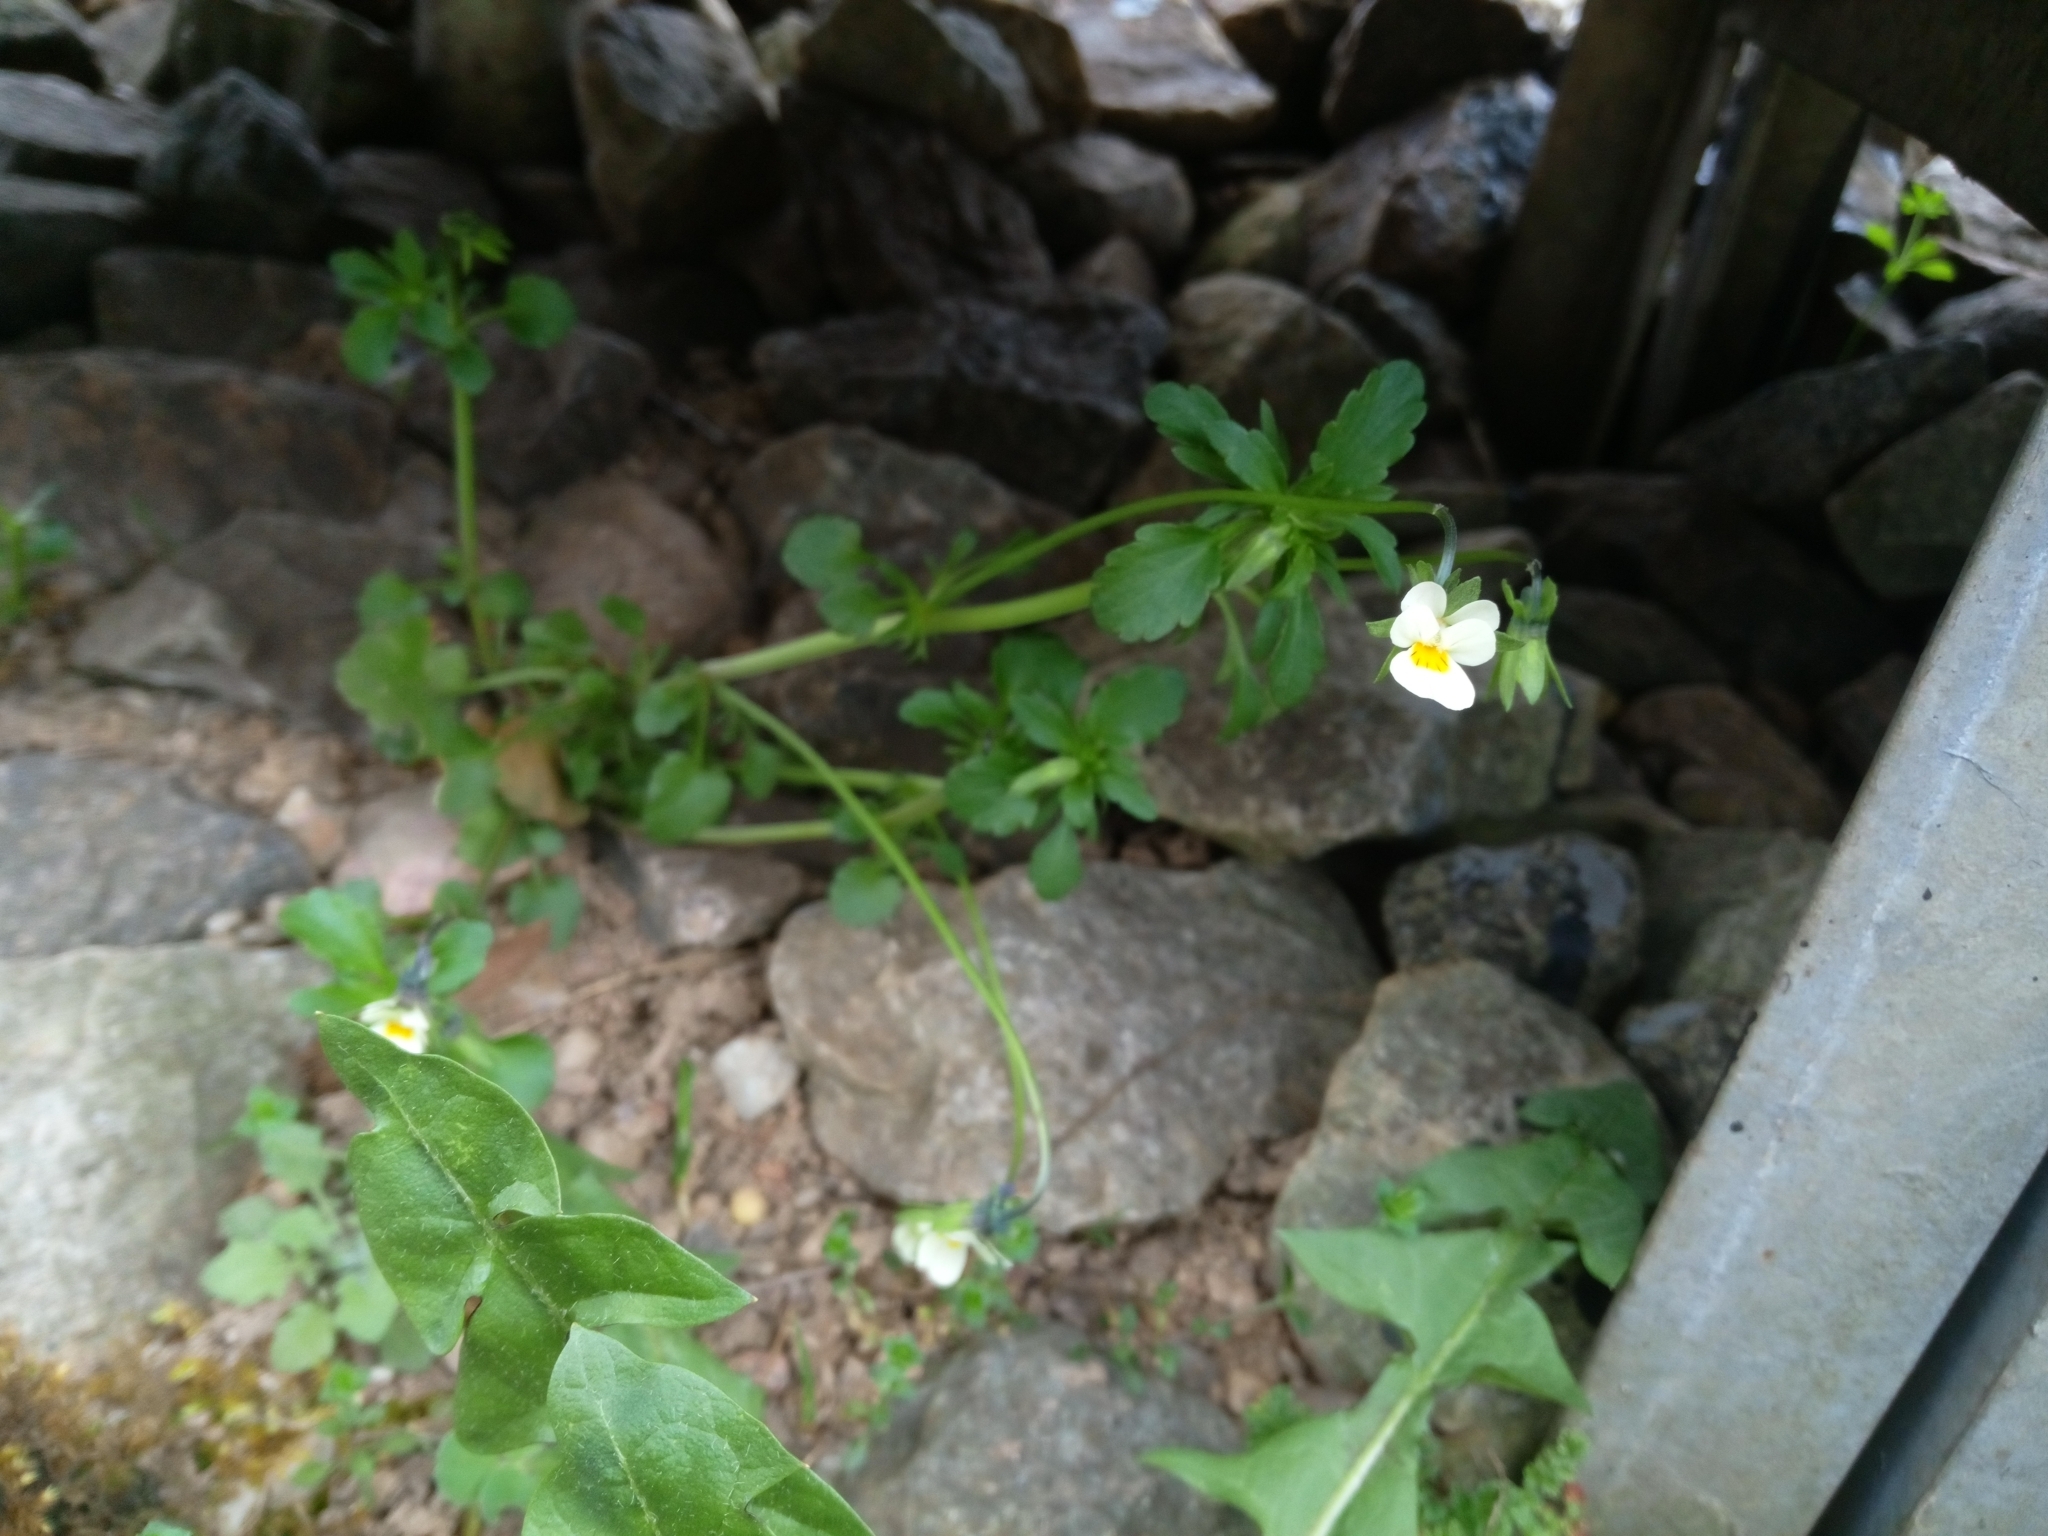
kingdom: Plantae
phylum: Tracheophyta
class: Magnoliopsida
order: Malpighiales
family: Violaceae
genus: Viola
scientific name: Viola arvensis
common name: Field pansy
